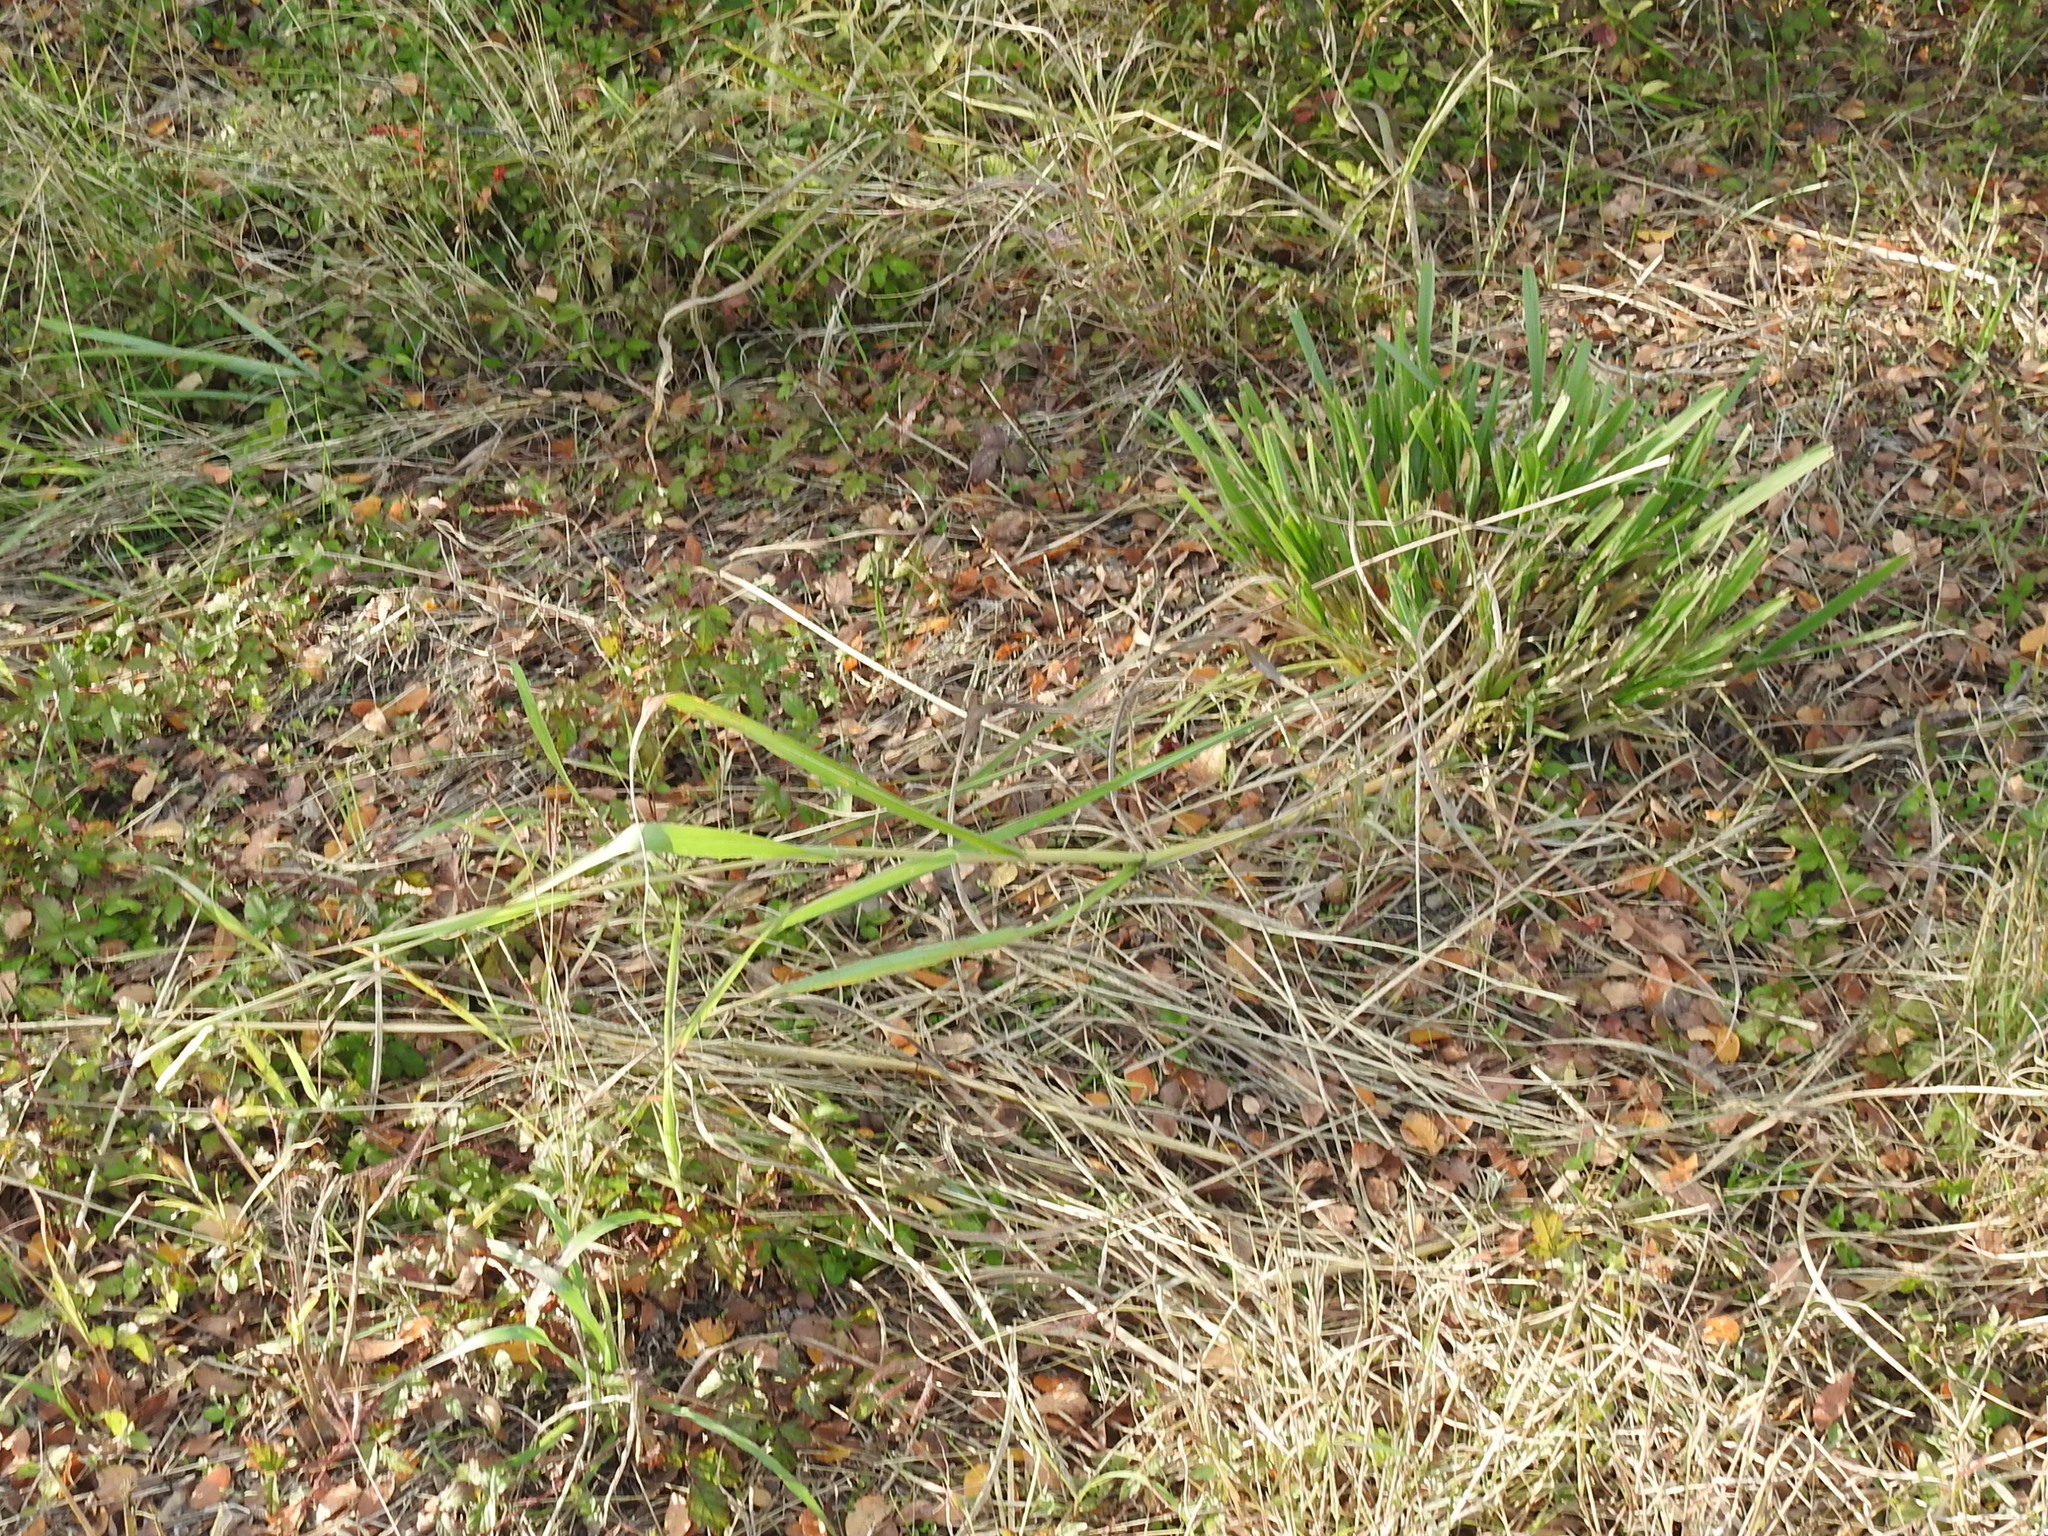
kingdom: Plantae
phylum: Tracheophyta
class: Liliopsida
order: Poales
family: Poaceae
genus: Tripsacum
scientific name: Tripsacum dactyloides
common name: Buffalo-grass
